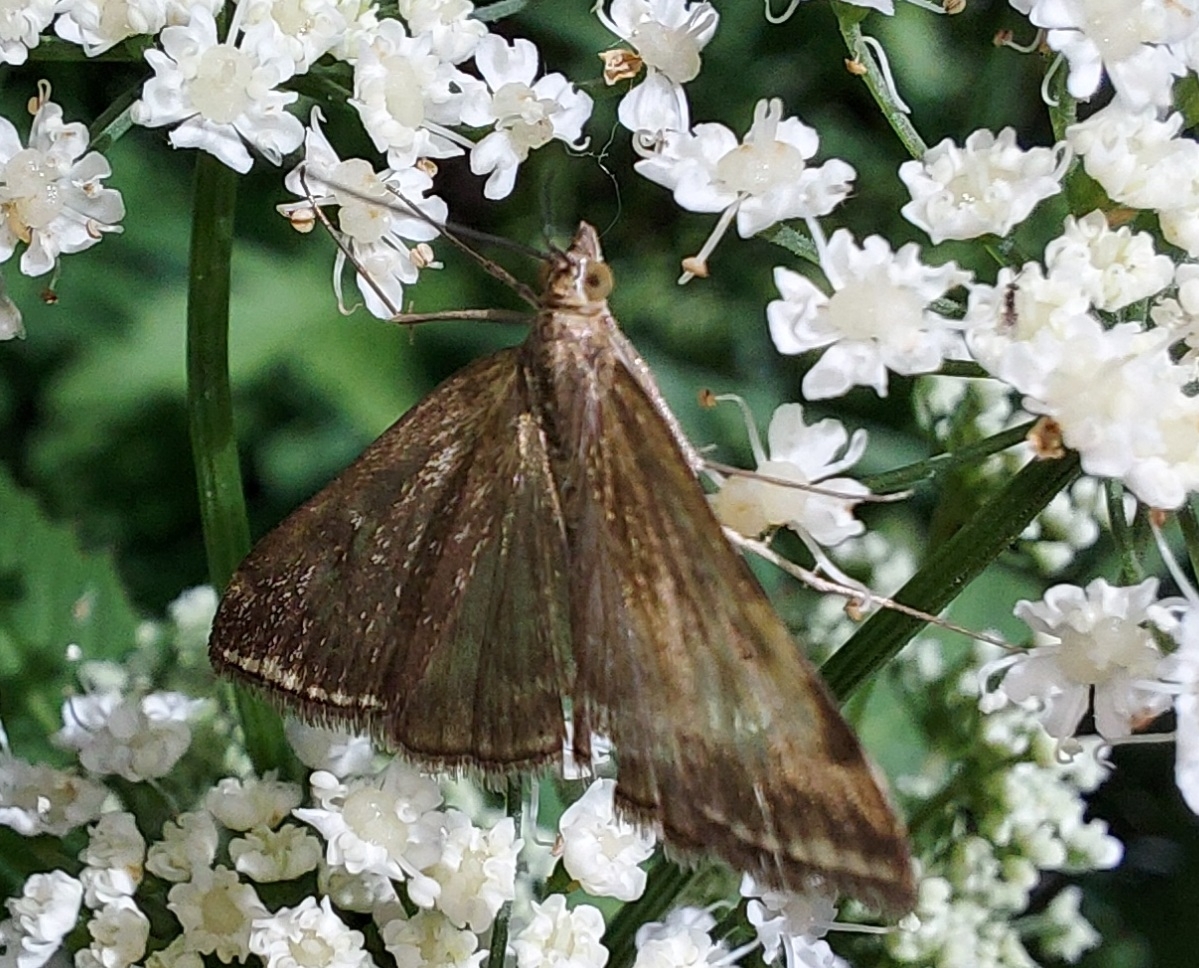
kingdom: Animalia
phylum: Arthropoda
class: Insecta
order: Lepidoptera
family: Crambidae
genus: Loxostege
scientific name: Loxostege sticticalis
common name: Crambid moth
